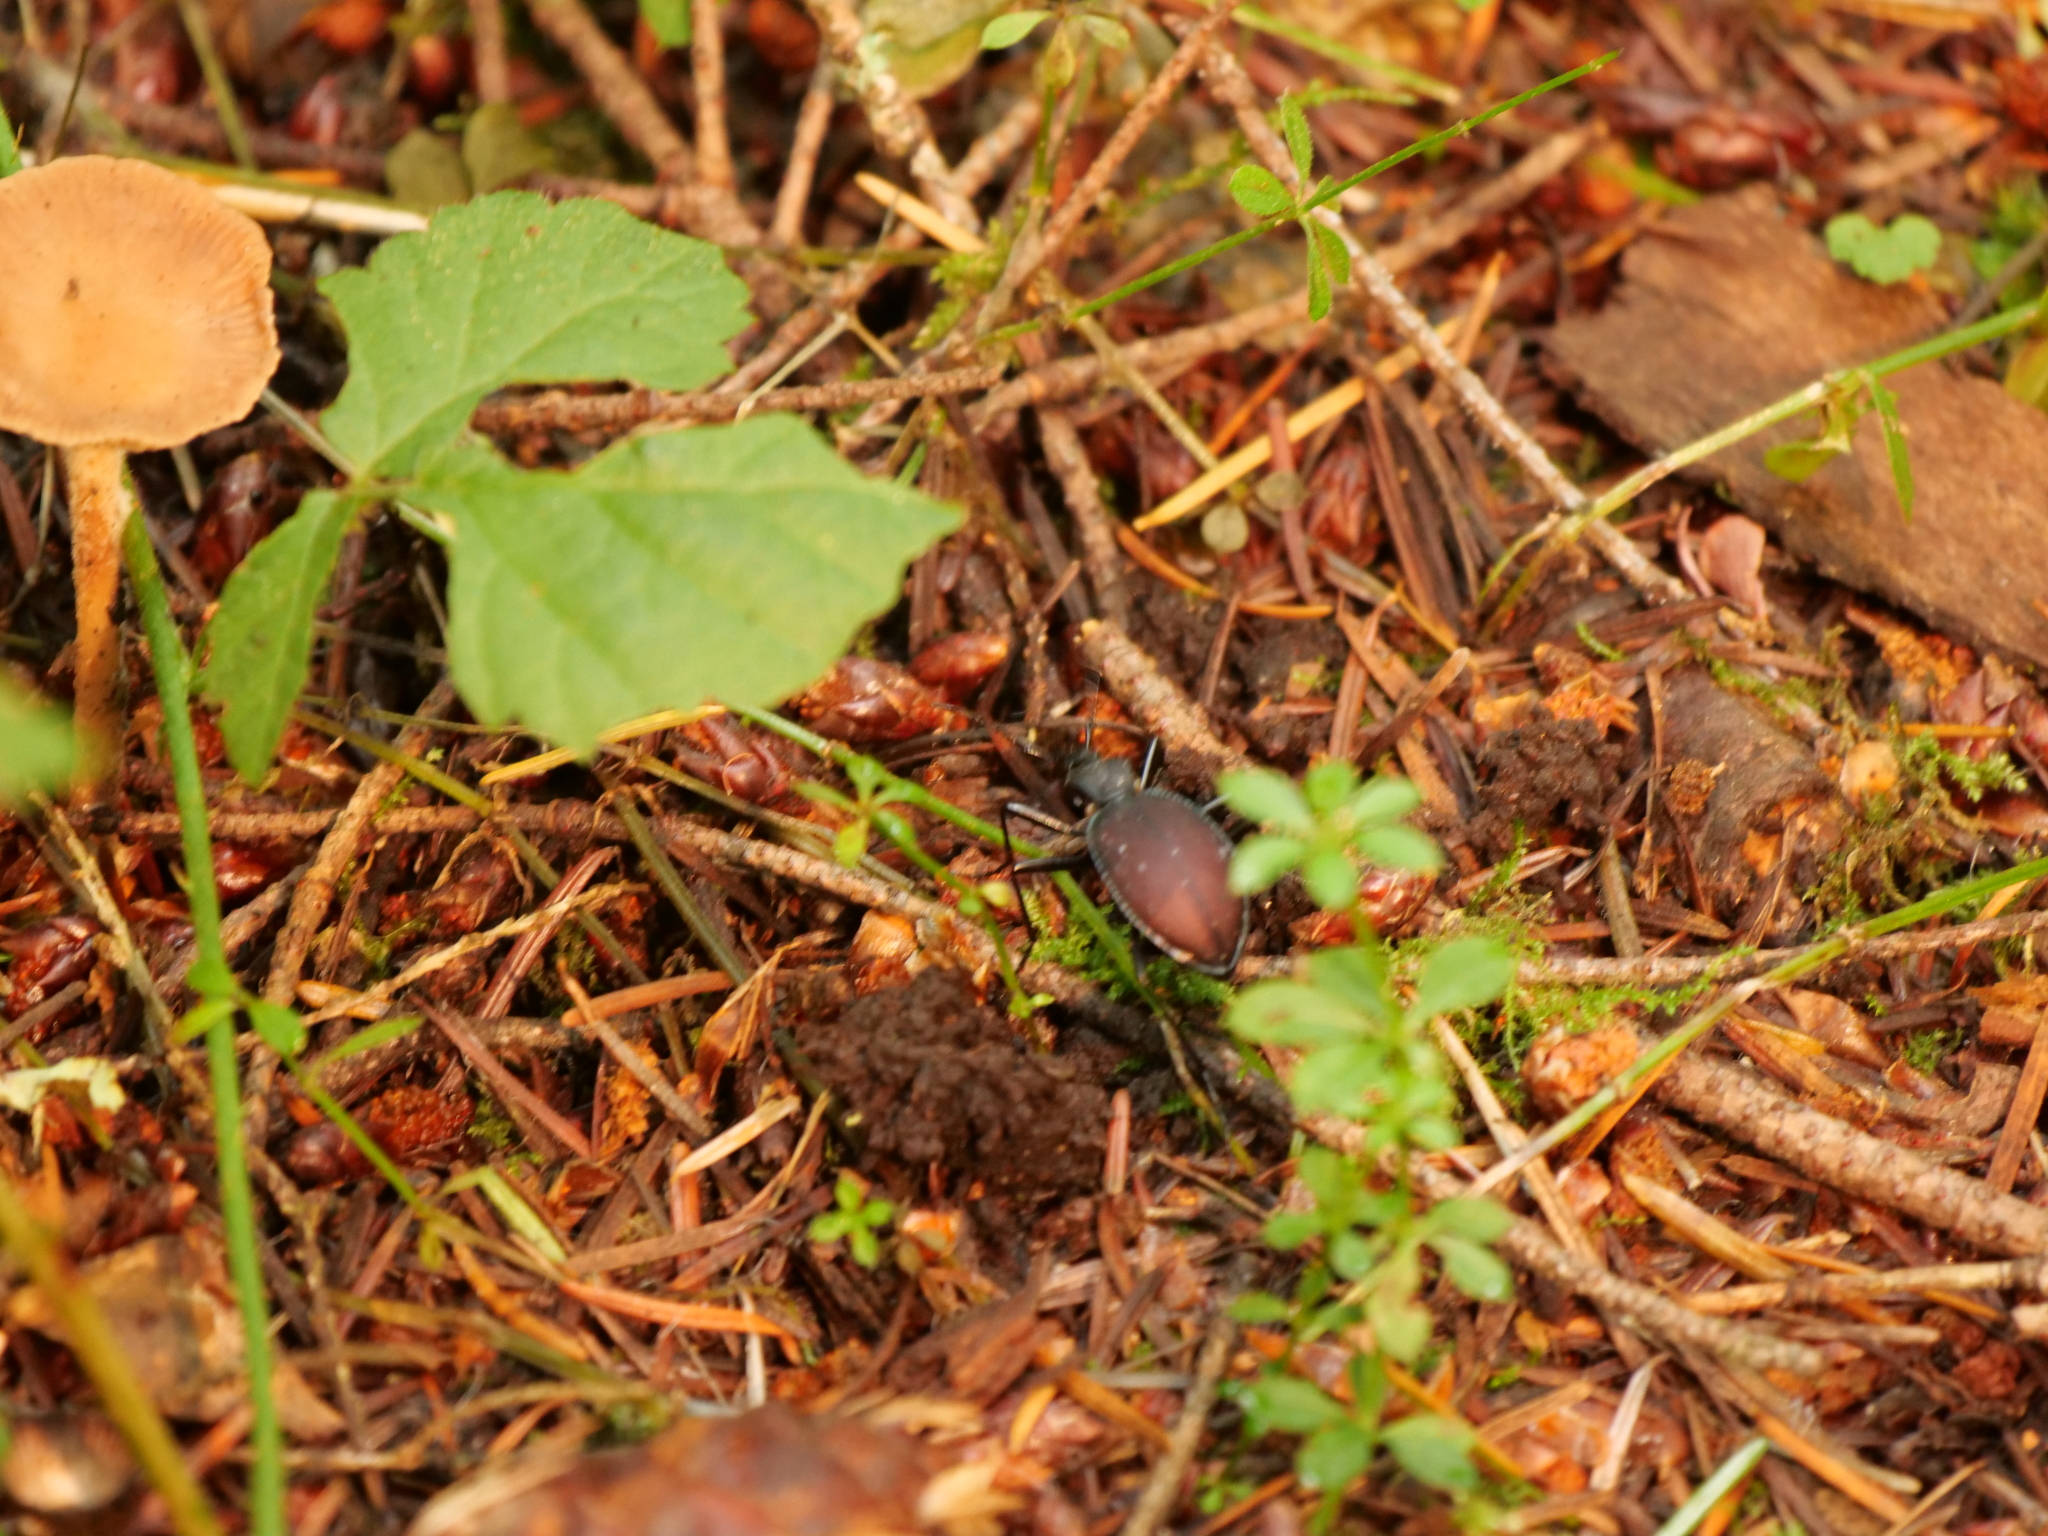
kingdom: Animalia
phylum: Arthropoda
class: Insecta
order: Coleoptera
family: Carabidae
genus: Scaphinotus
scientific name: Scaphinotus angusticollis
